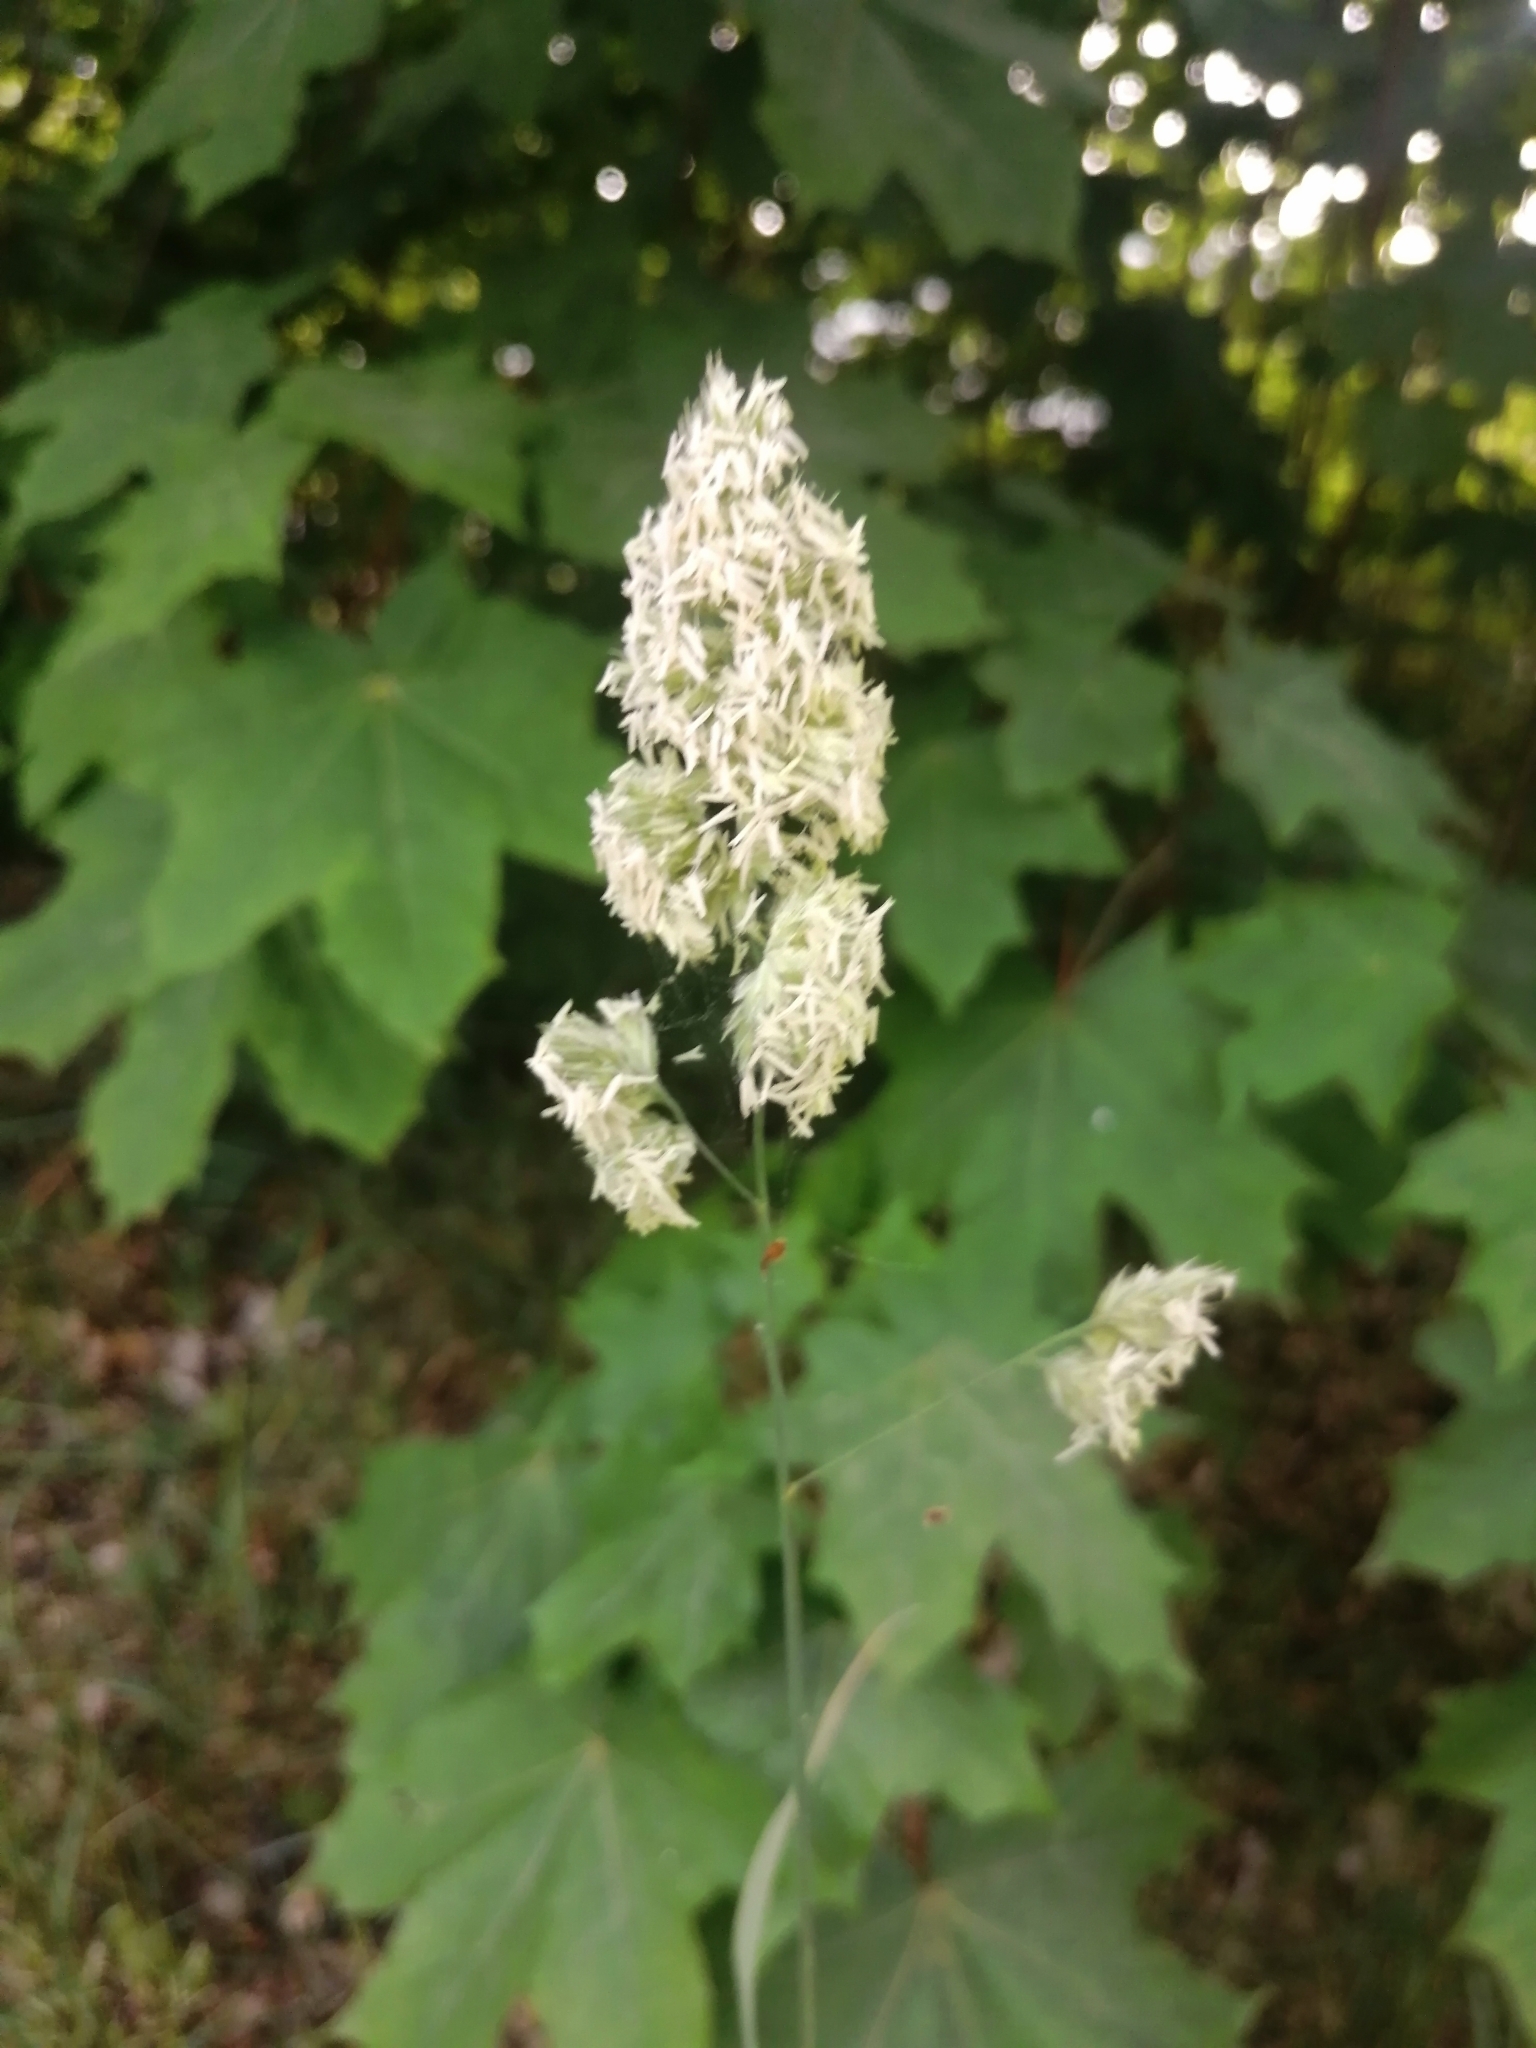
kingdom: Plantae
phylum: Tracheophyta
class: Liliopsida
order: Poales
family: Poaceae
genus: Dactylis
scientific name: Dactylis glomerata
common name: Orchardgrass
